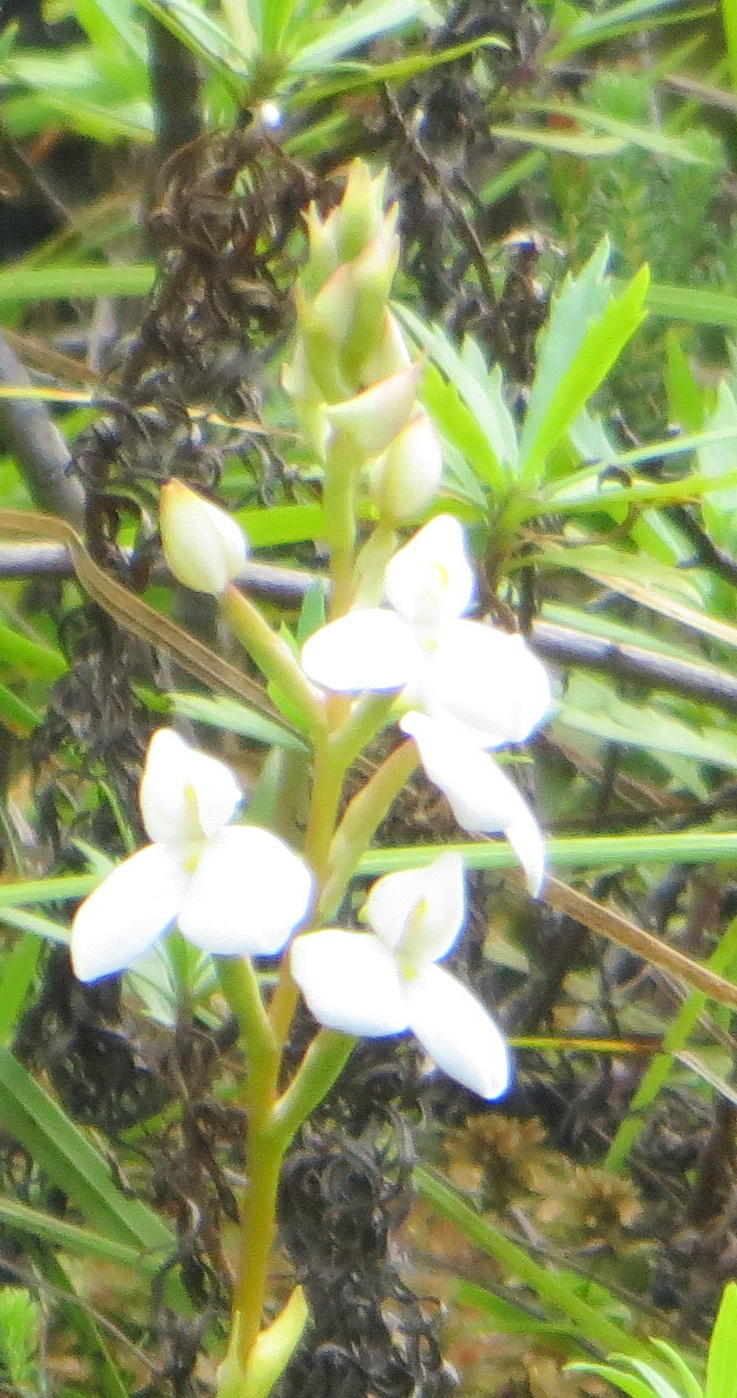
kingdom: Plantae
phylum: Tracheophyta
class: Liliopsida
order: Asparagales
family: Orchidaceae
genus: Disa
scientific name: Disa tripetaloides
